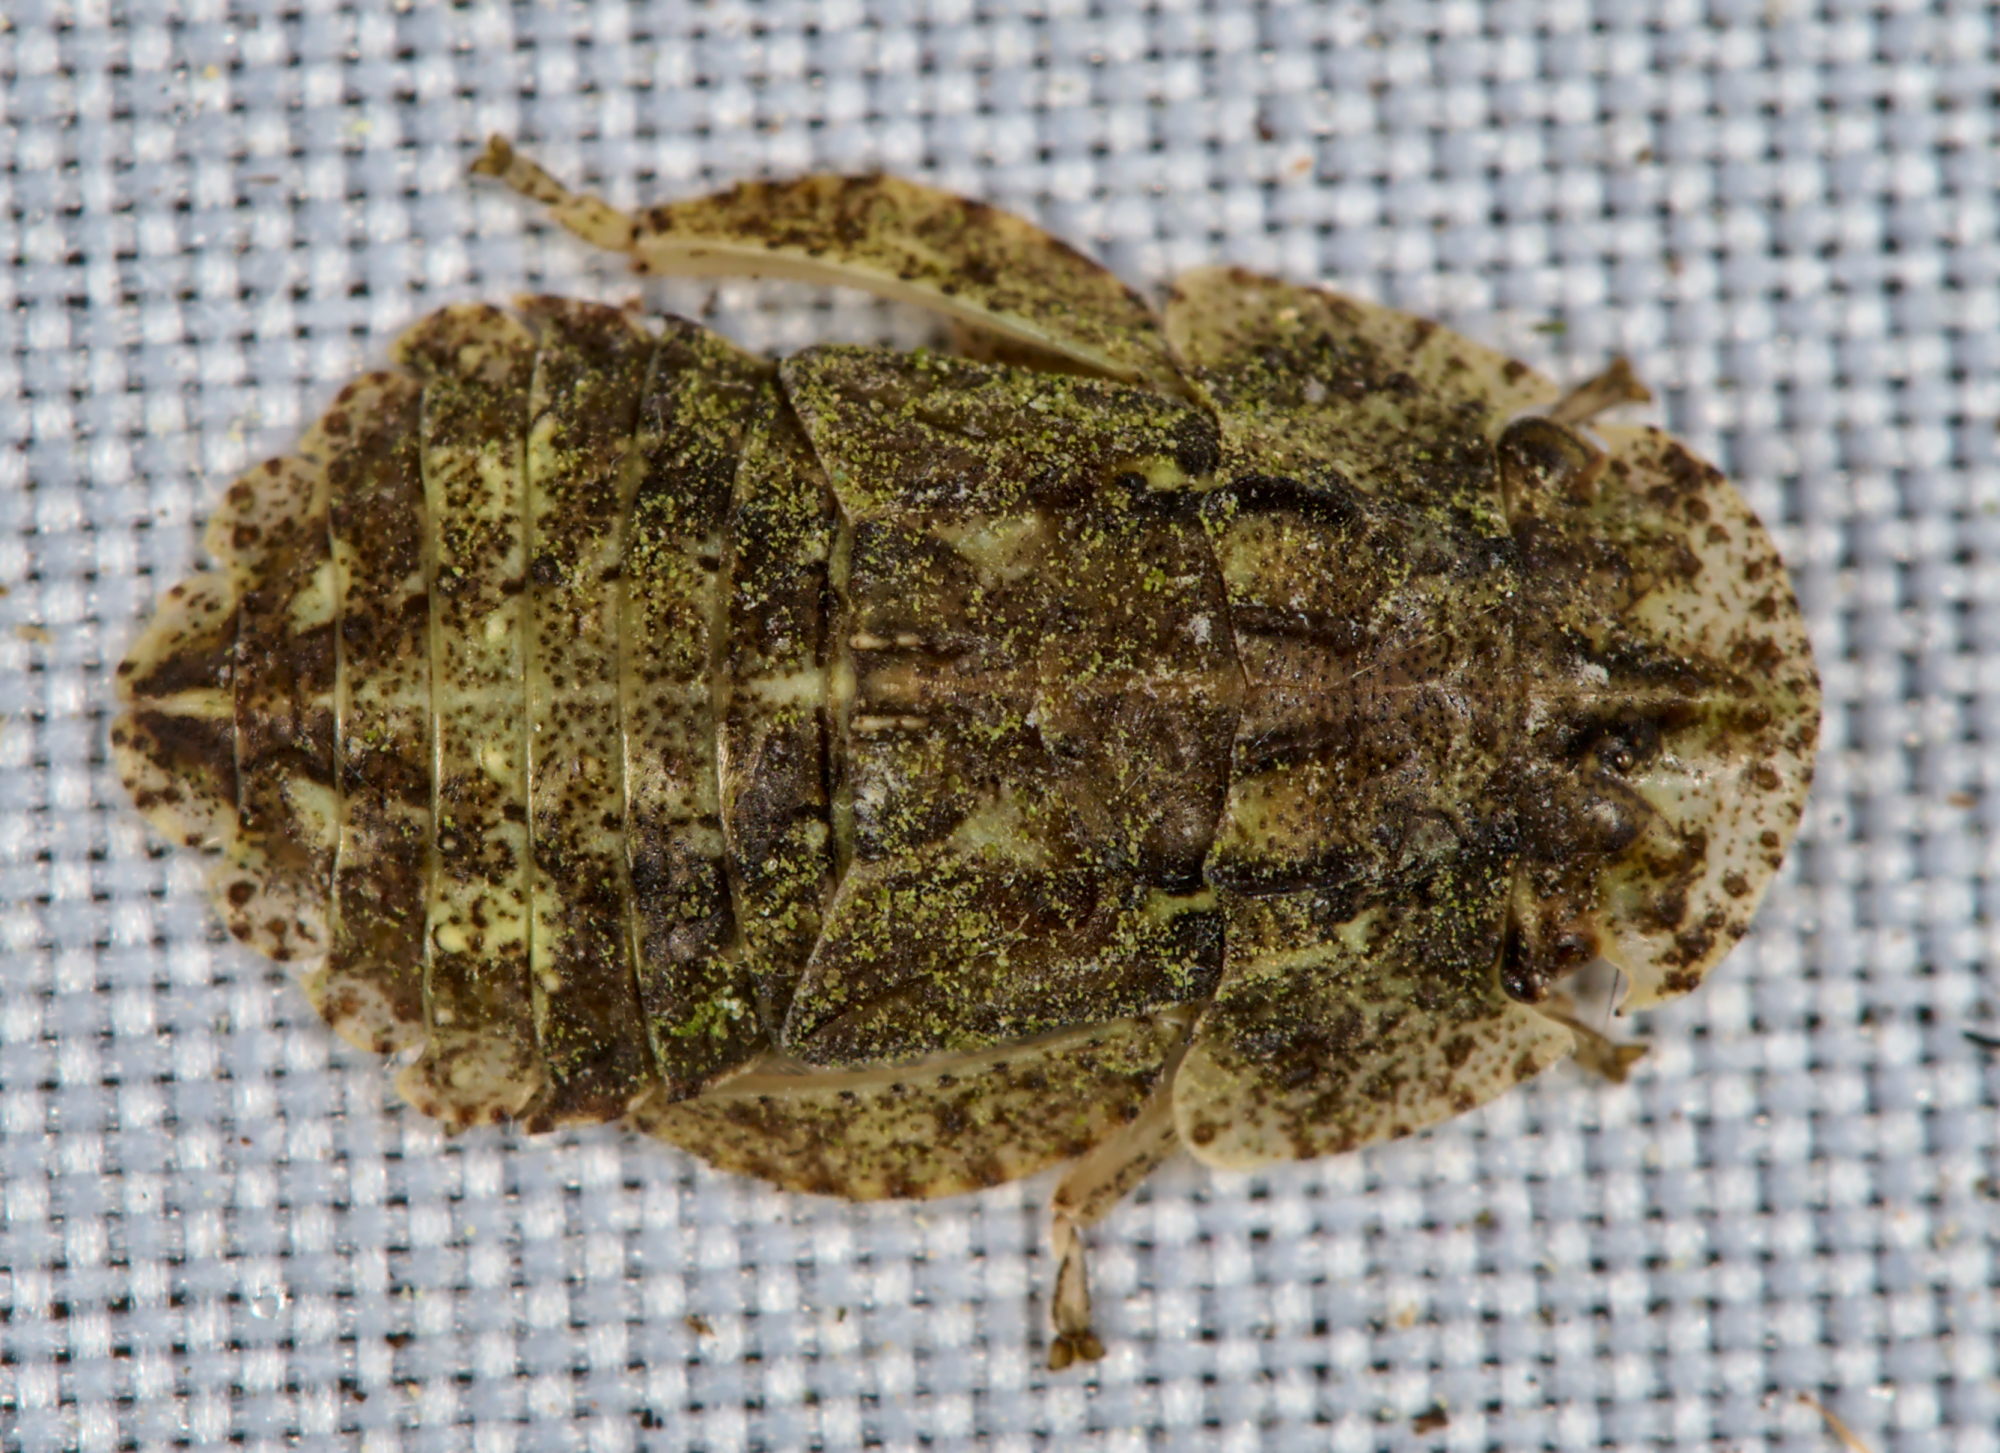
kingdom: Animalia
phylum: Arthropoda
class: Insecta
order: Hemiptera
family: Cicadellidae
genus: Ledra
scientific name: Ledra aurita
